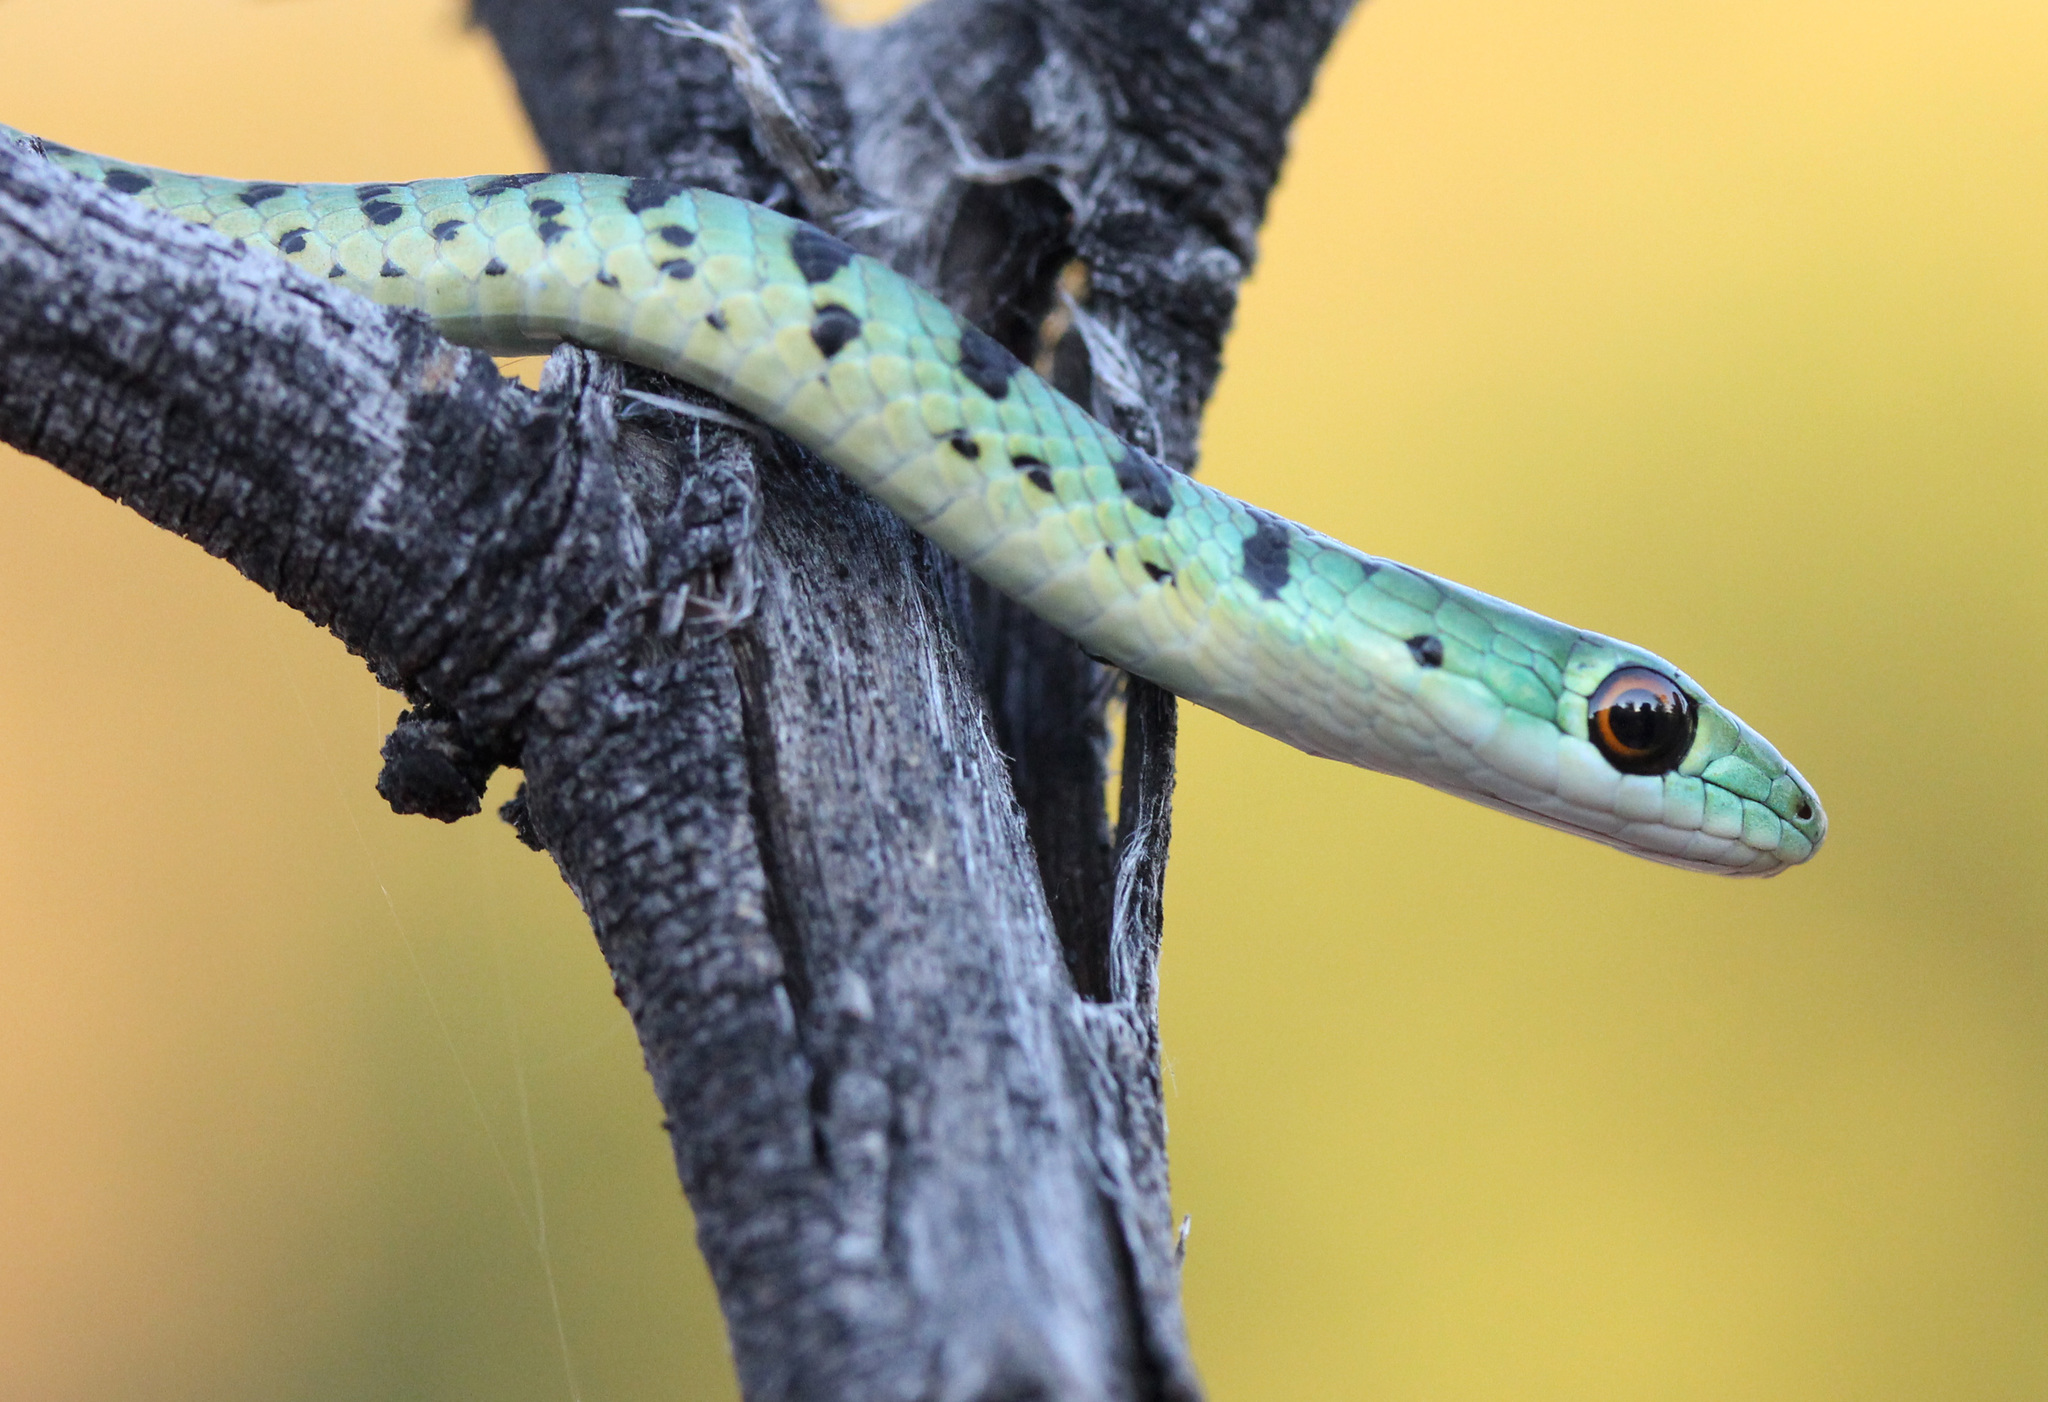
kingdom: Animalia
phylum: Chordata
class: Squamata
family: Colubridae
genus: Philothamnus
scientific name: Philothamnus semivariegatus
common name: Spotted bush snake
